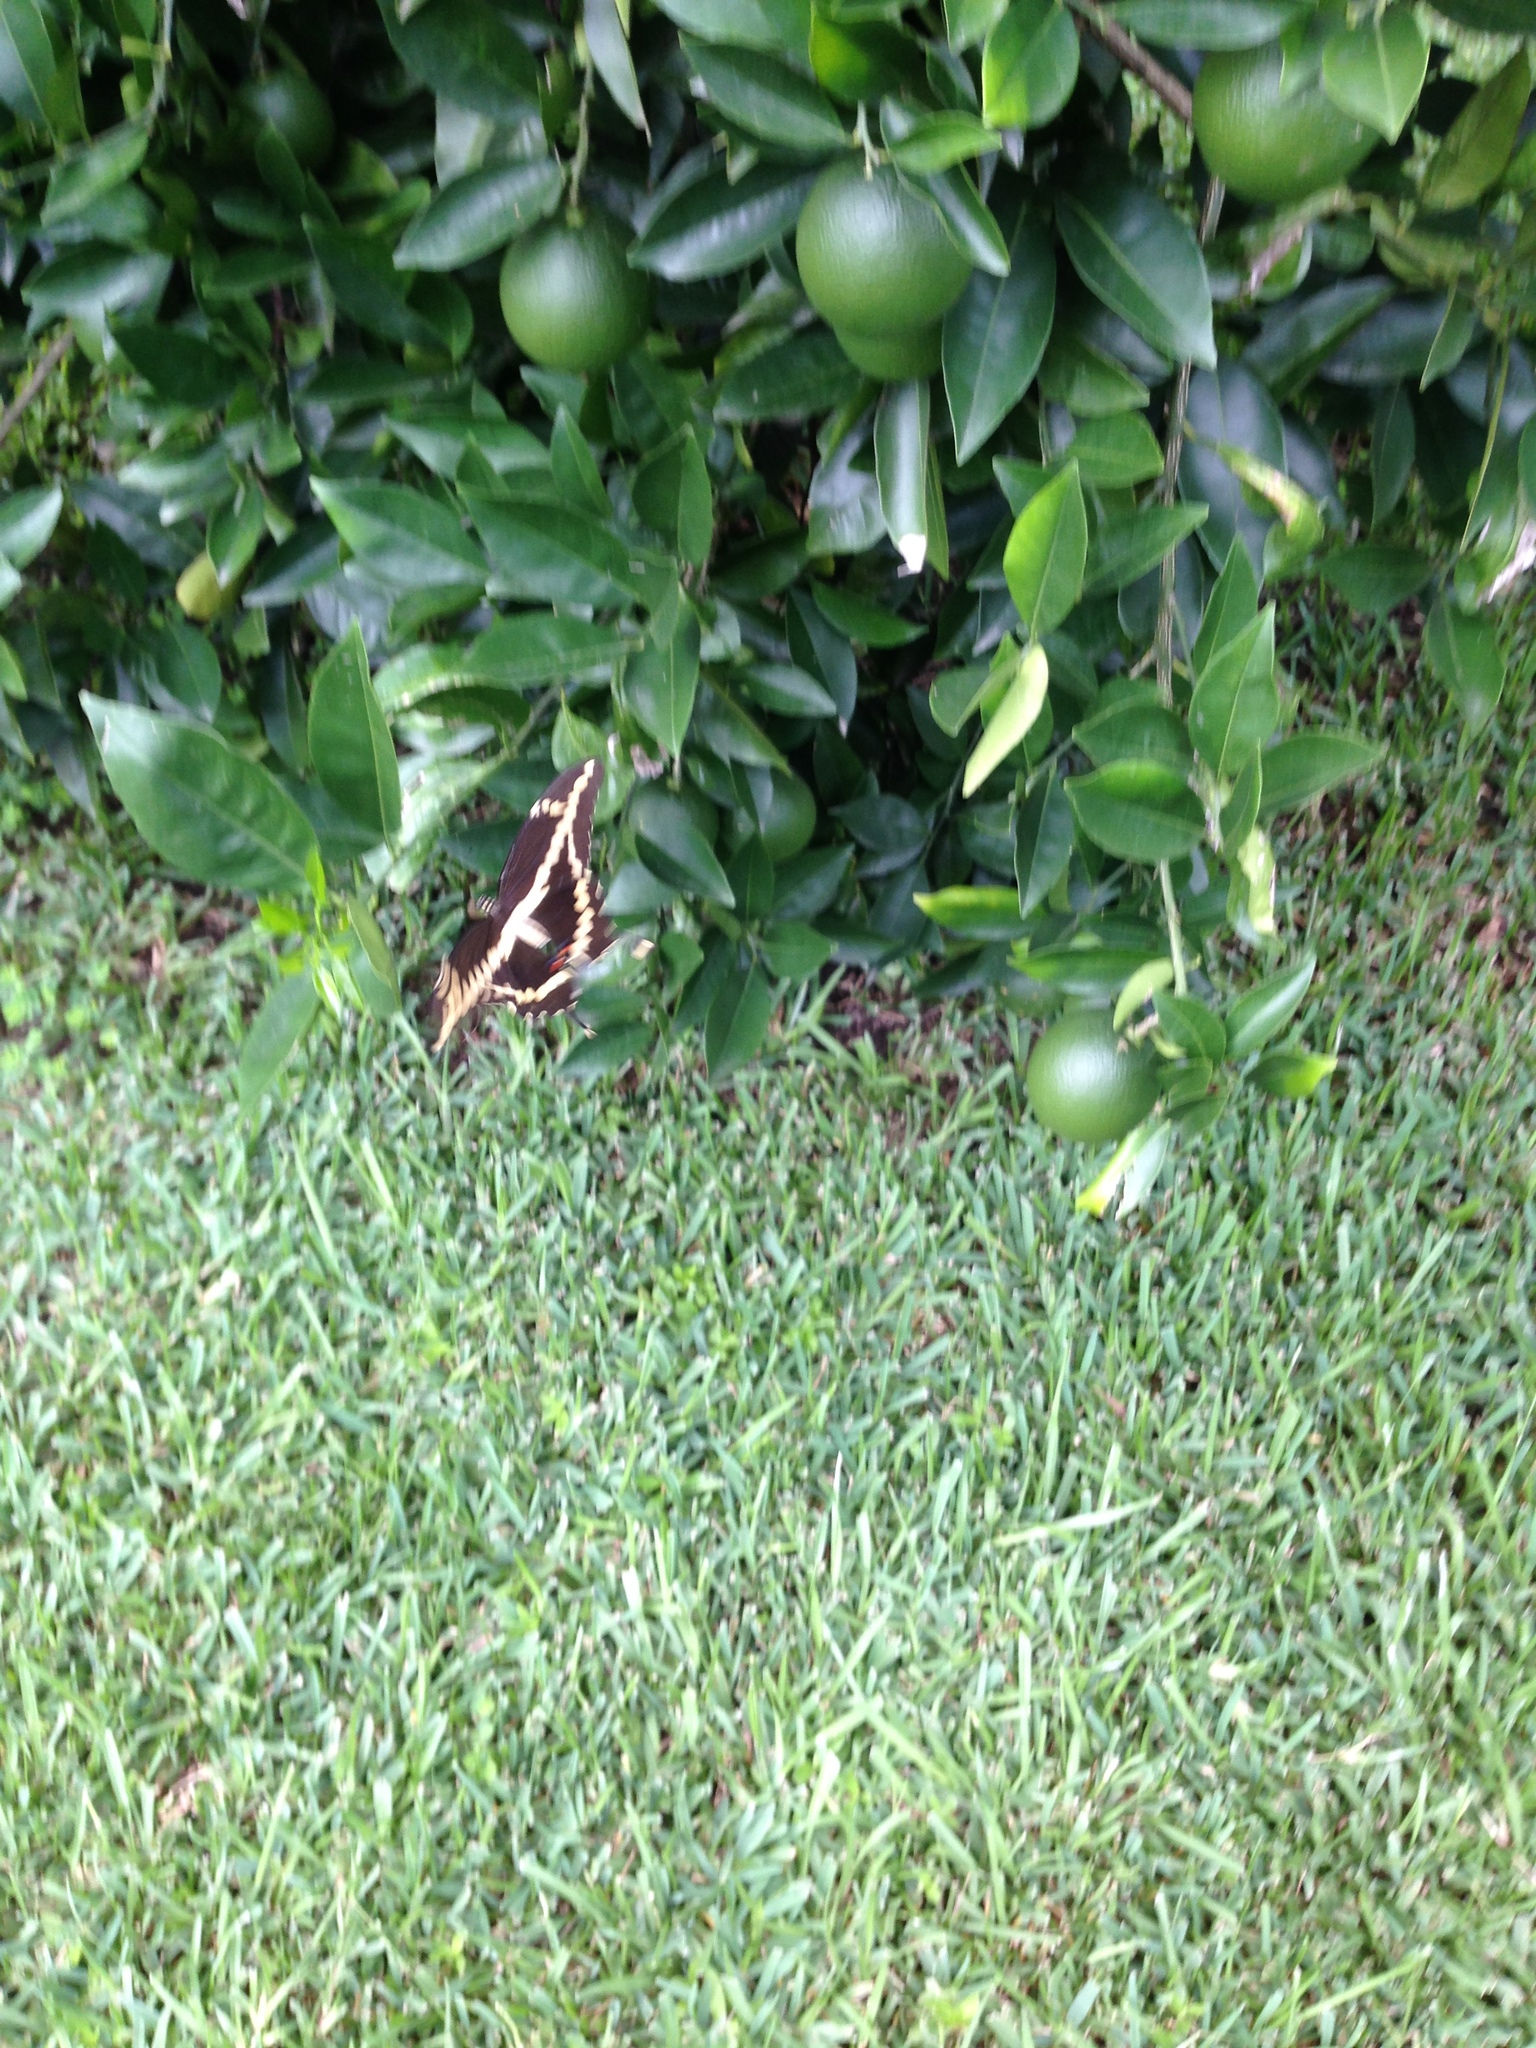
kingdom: Animalia
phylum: Arthropoda
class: Insecta
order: Lepidoptera
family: Papilionidae
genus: Papilio
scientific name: Papilio cresphontes
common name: Giant swallowtail
